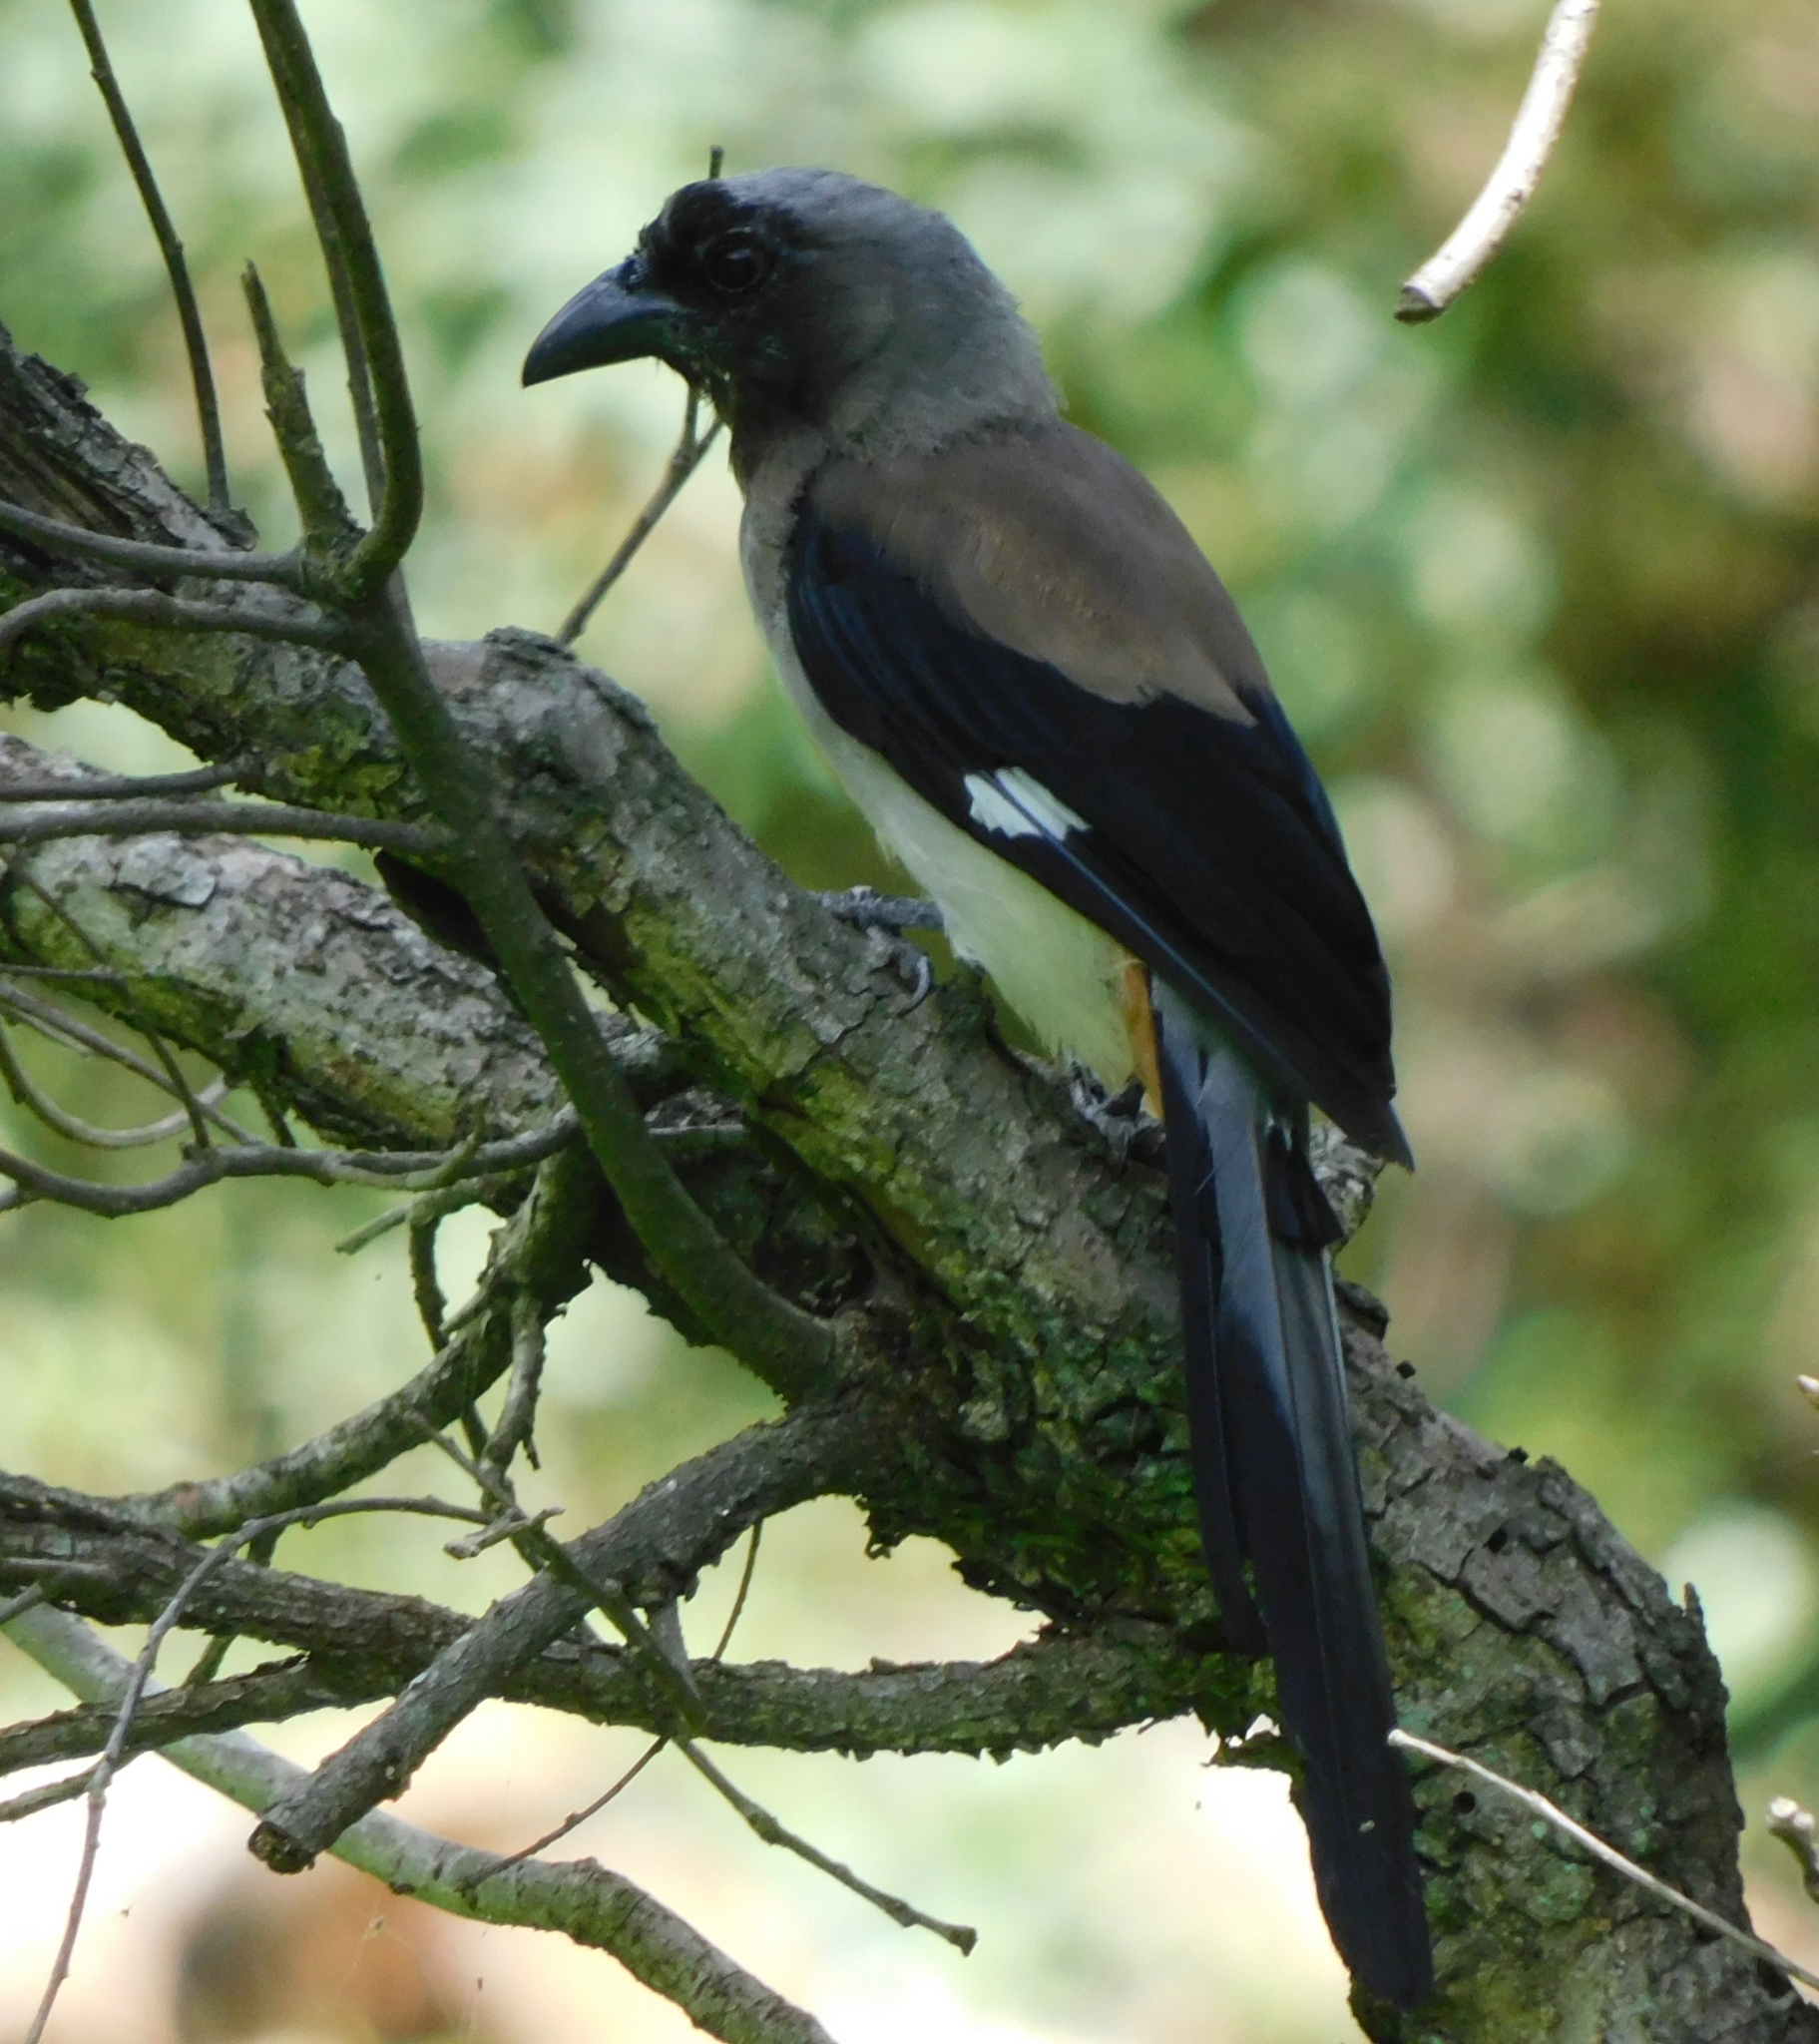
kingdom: Animalia
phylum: Chordata
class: Aves
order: Passeriformes
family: Corvidae
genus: Dendrocitta
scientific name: Dendrocitta formosae
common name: Grey treepie
